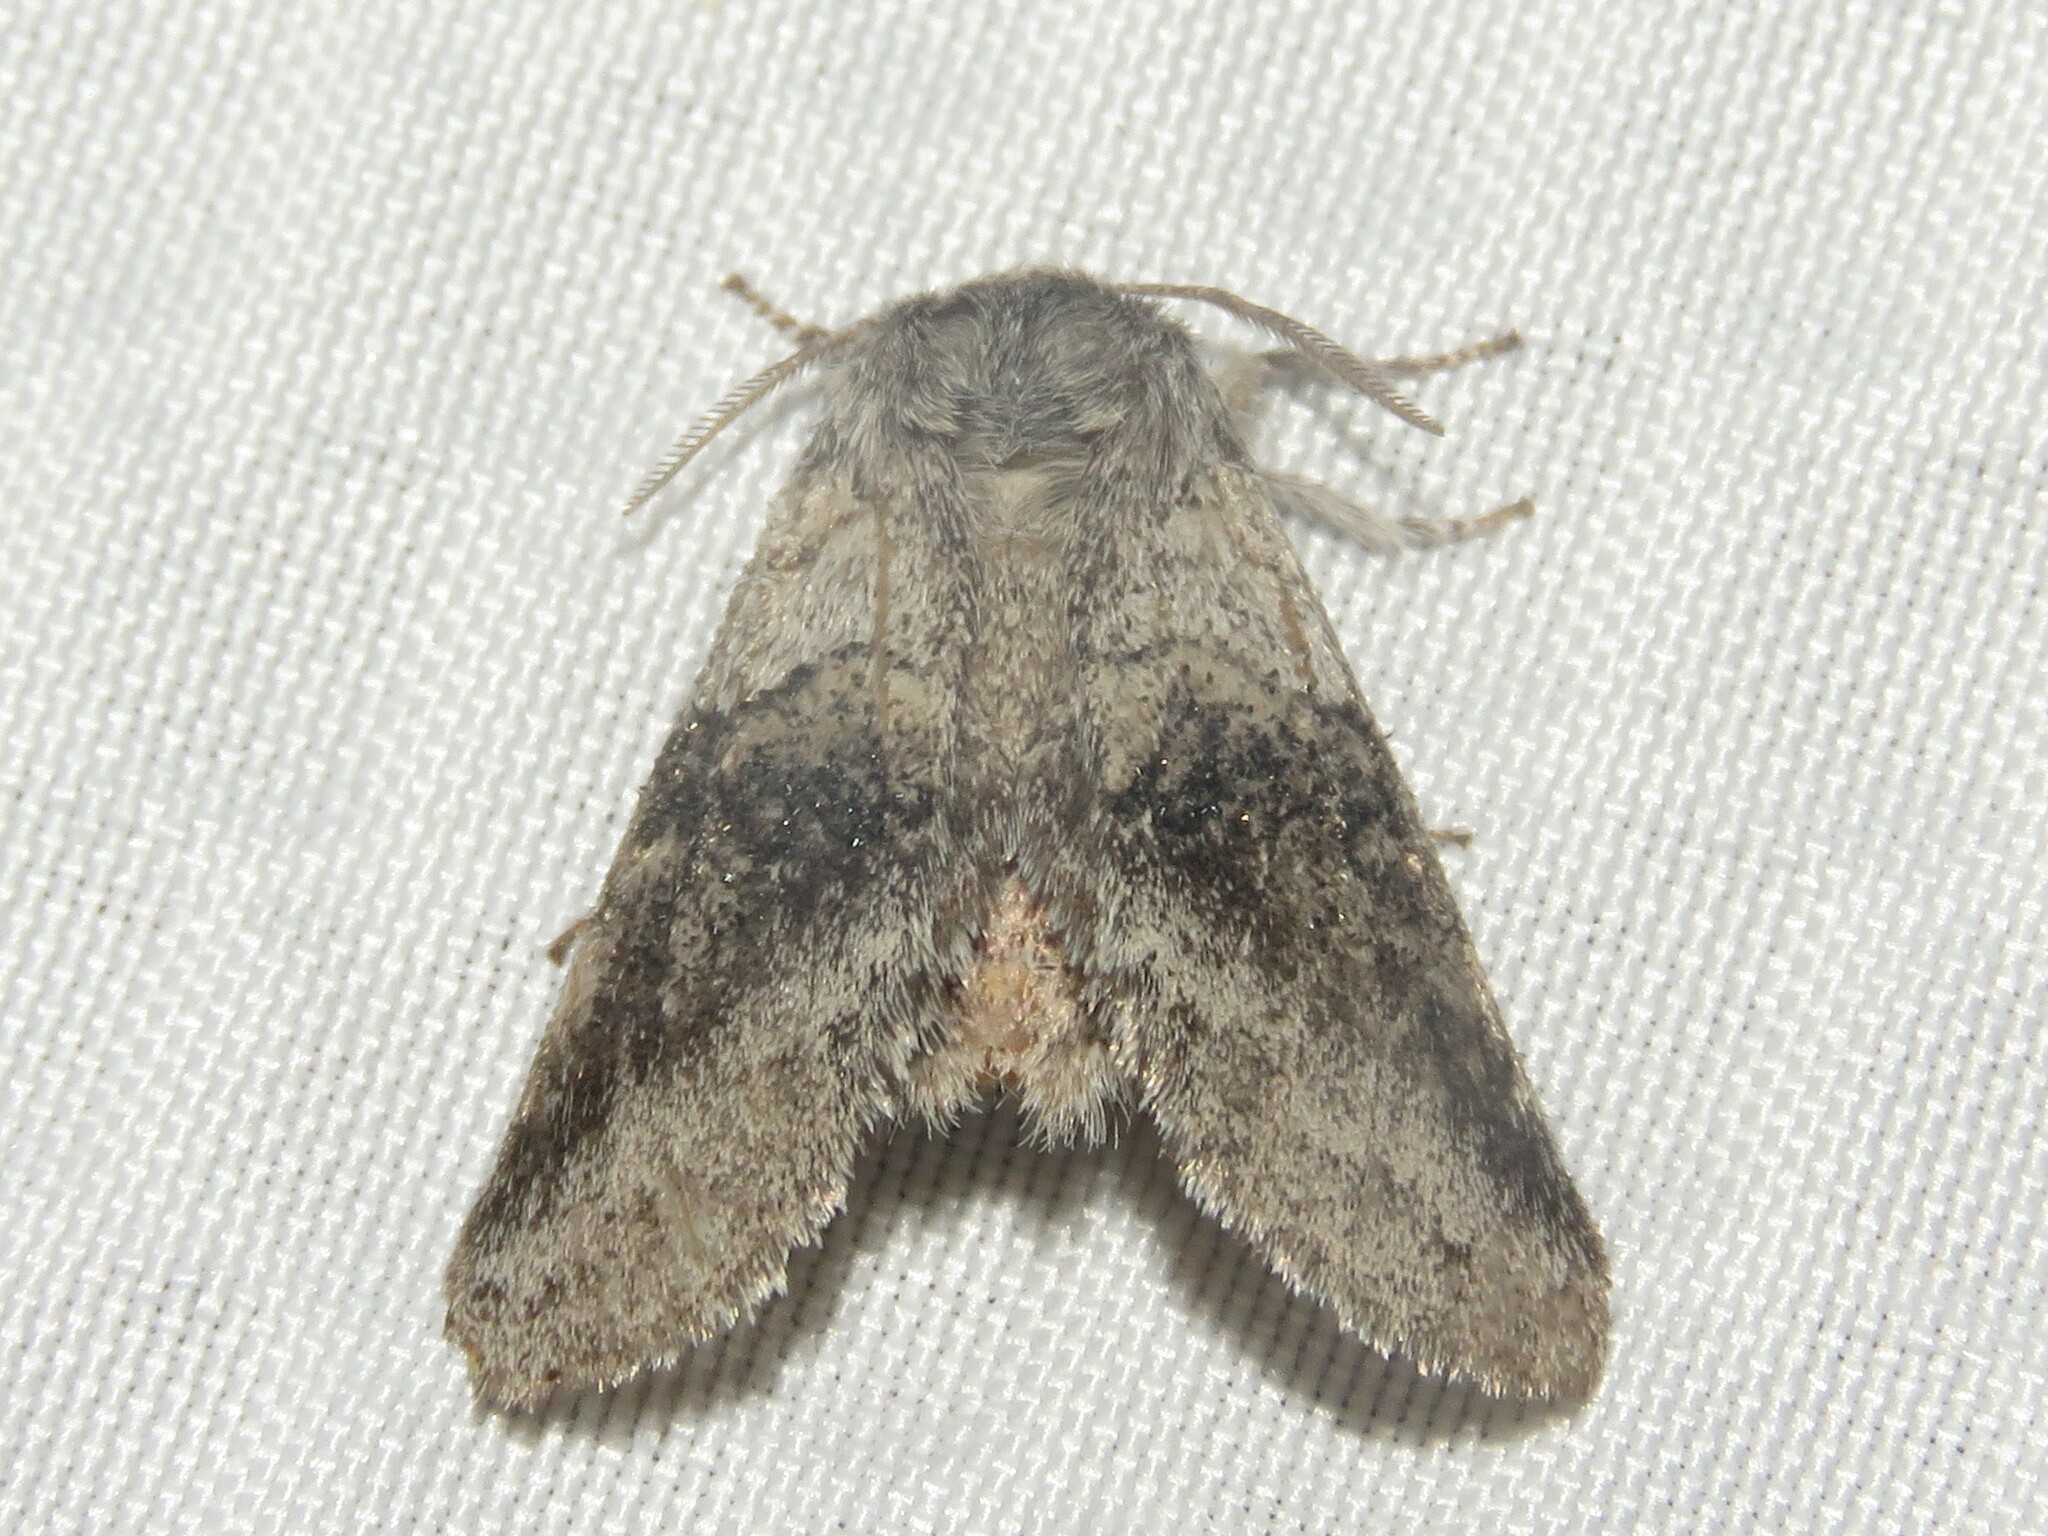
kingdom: Animalia
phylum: Arthropoda
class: Insecta
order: Lepidoptera
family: Notodontidae
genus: Gluphisia
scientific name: Gluphisia septentrionis
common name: Common gluphisia
